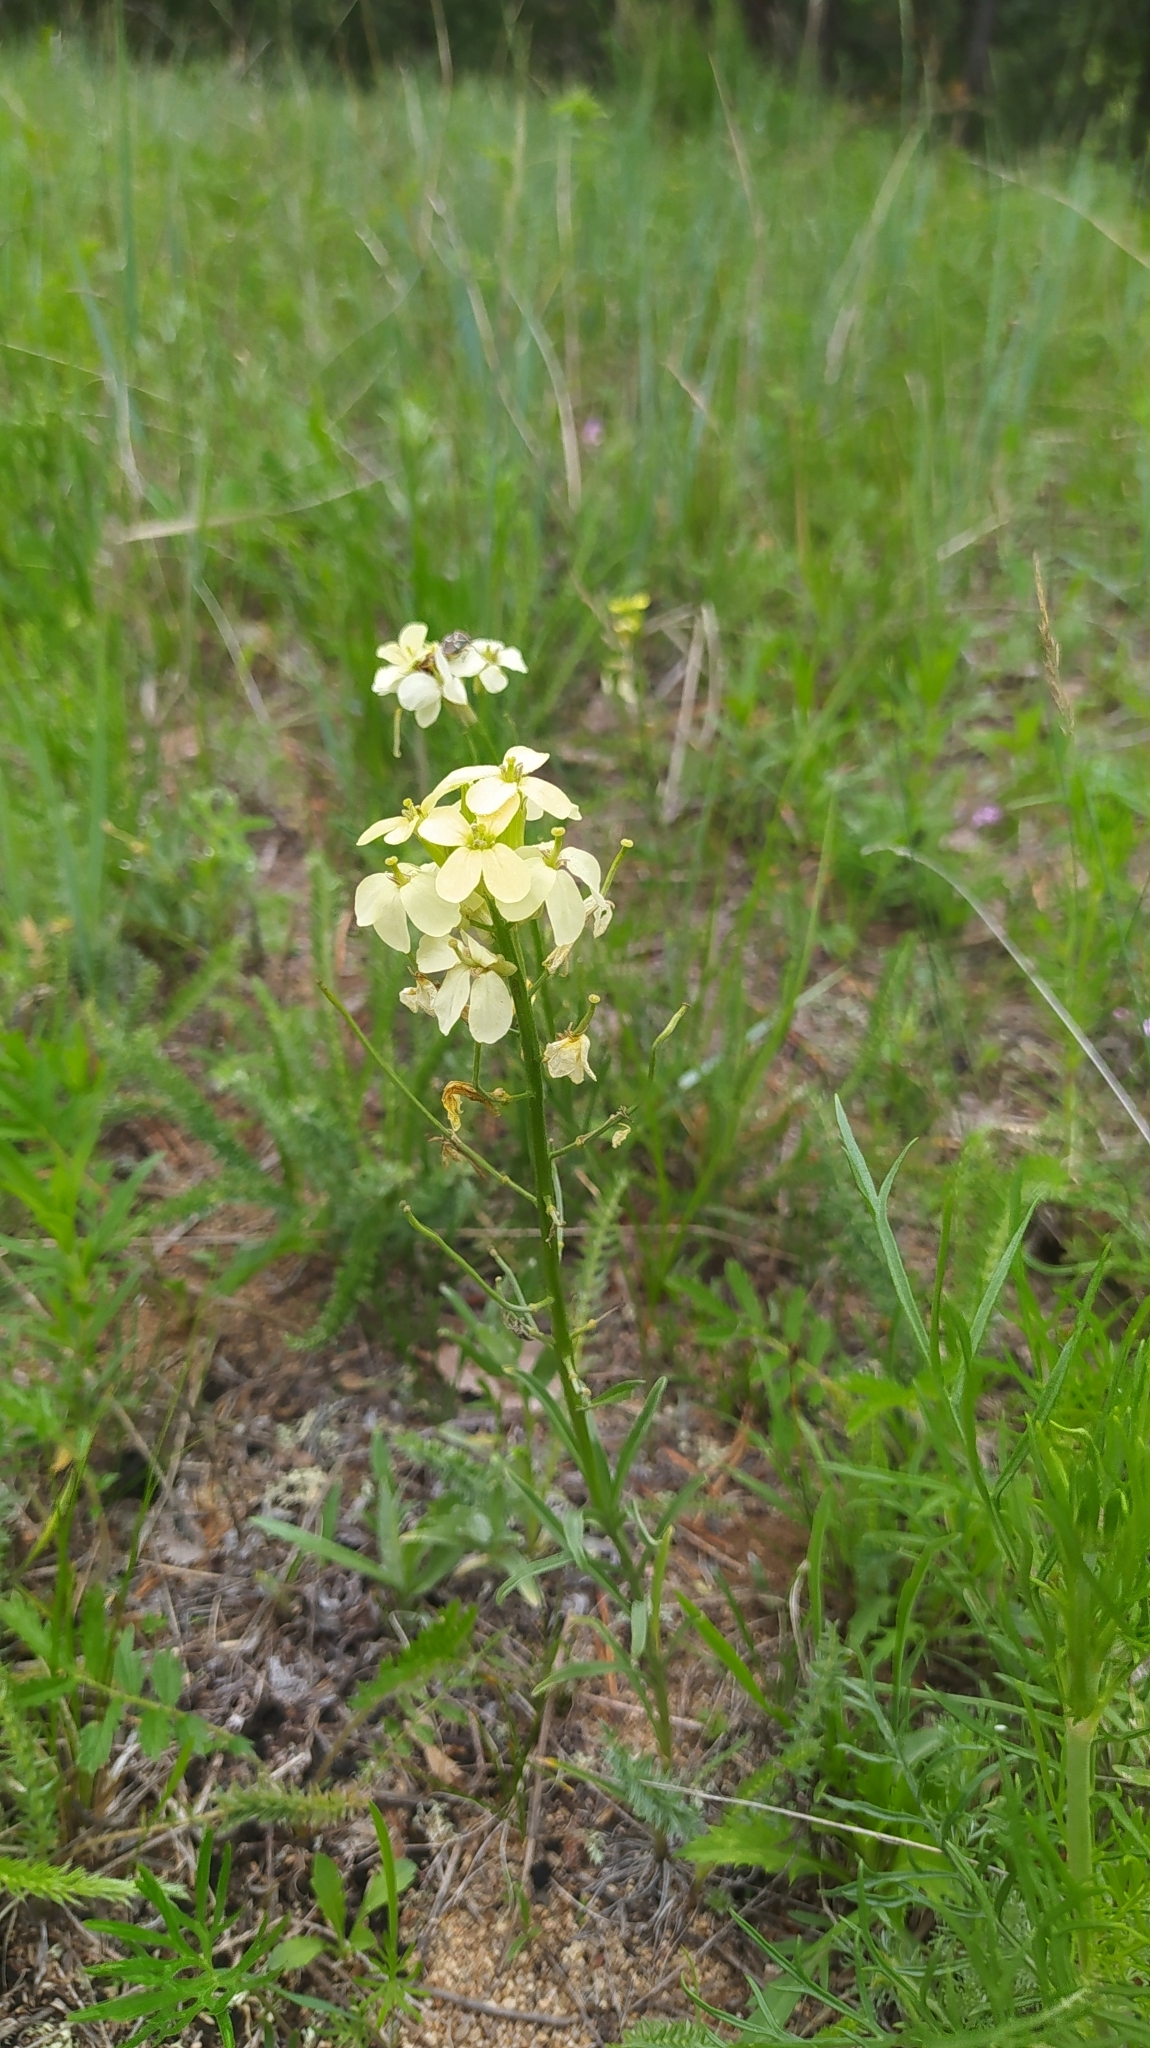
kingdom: Plantae
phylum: Tracheophyta
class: Magnoliopsida
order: Brassicales
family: Brassicaceae
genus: Erysimum
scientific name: Erysimum flavum
